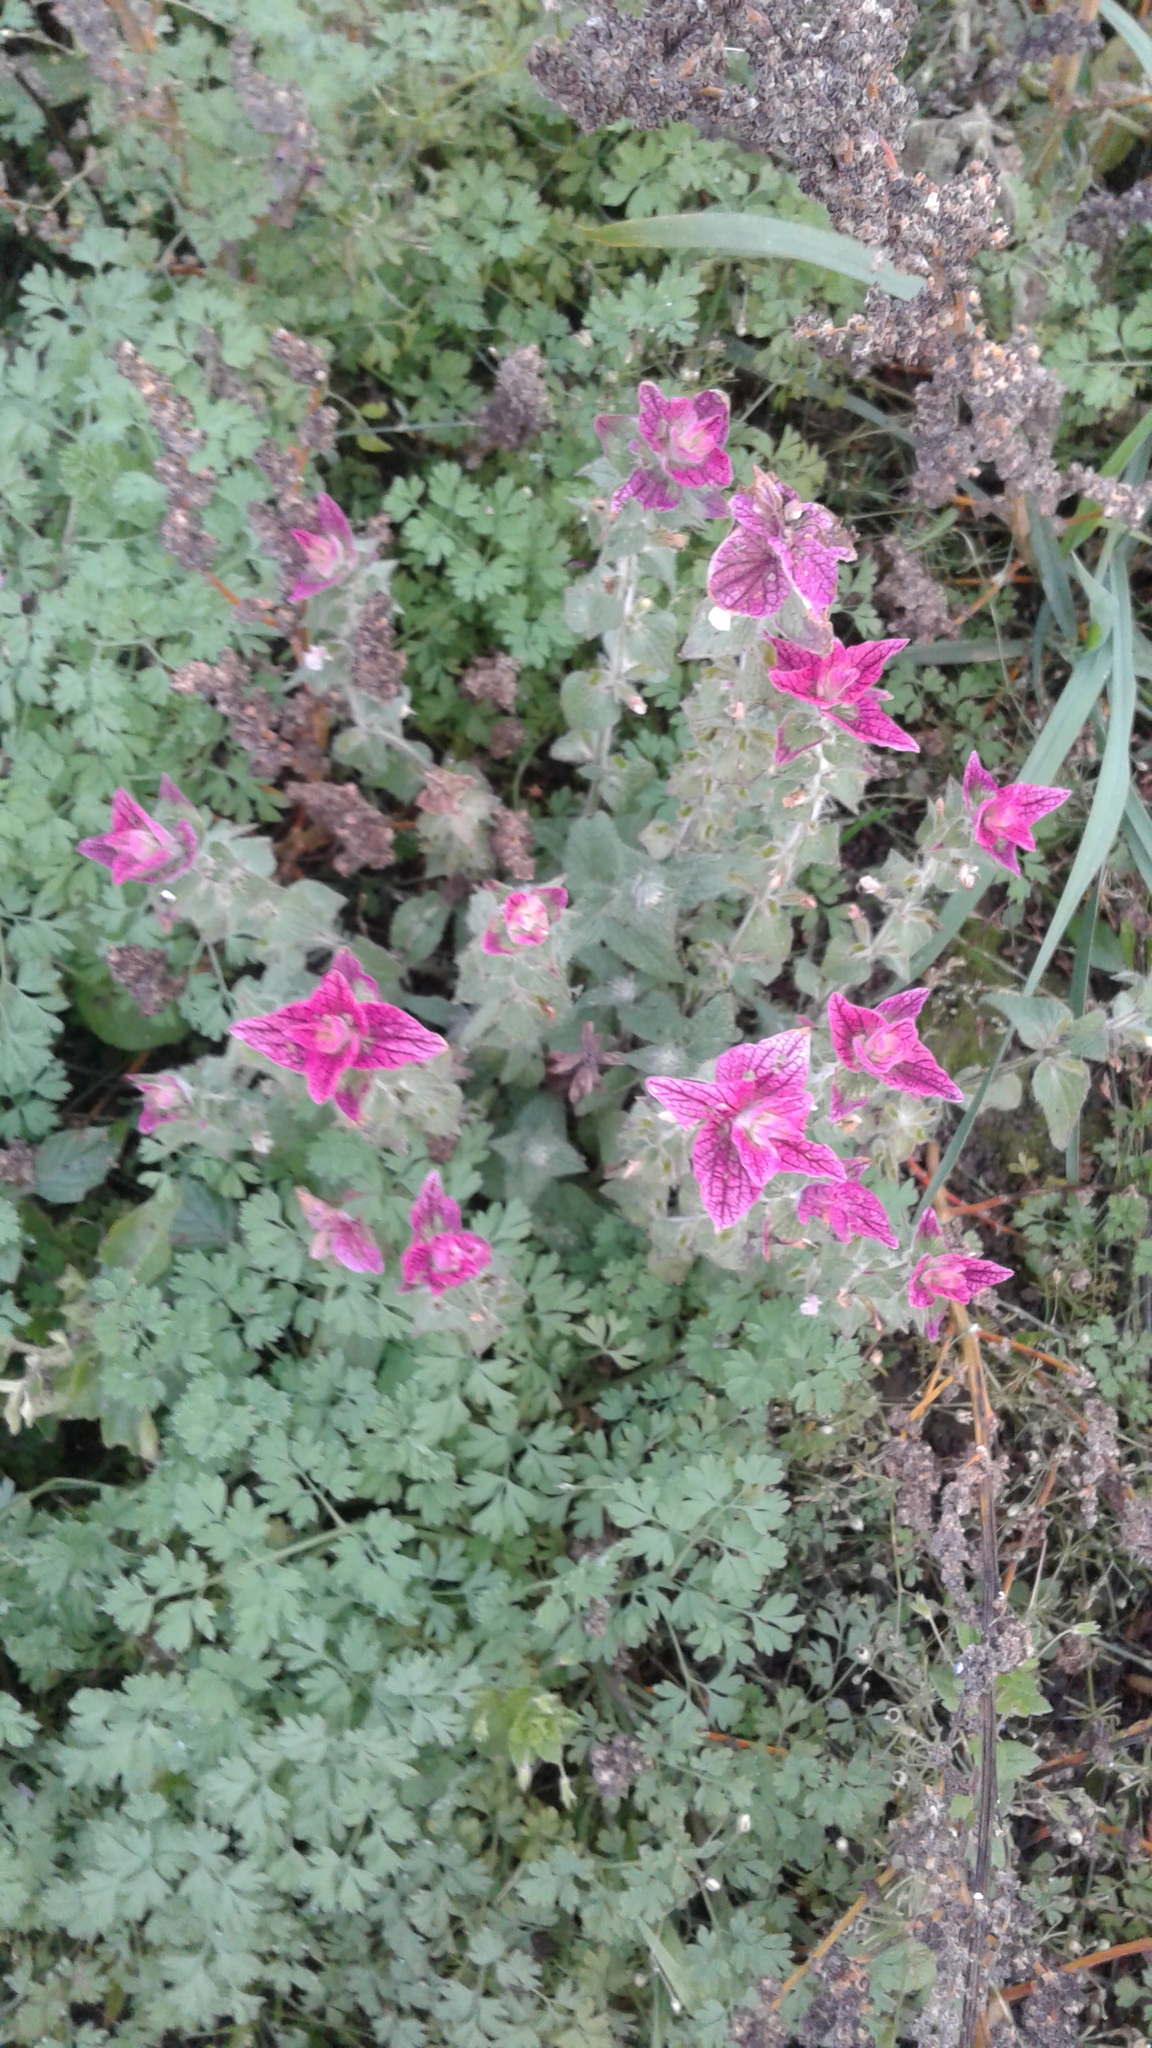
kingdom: Plantae
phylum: Tracheophyta
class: Magnoliopsida
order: Lamiales
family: Lamiaceae
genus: Salvia
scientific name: Salvia viridis
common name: Annual clary
